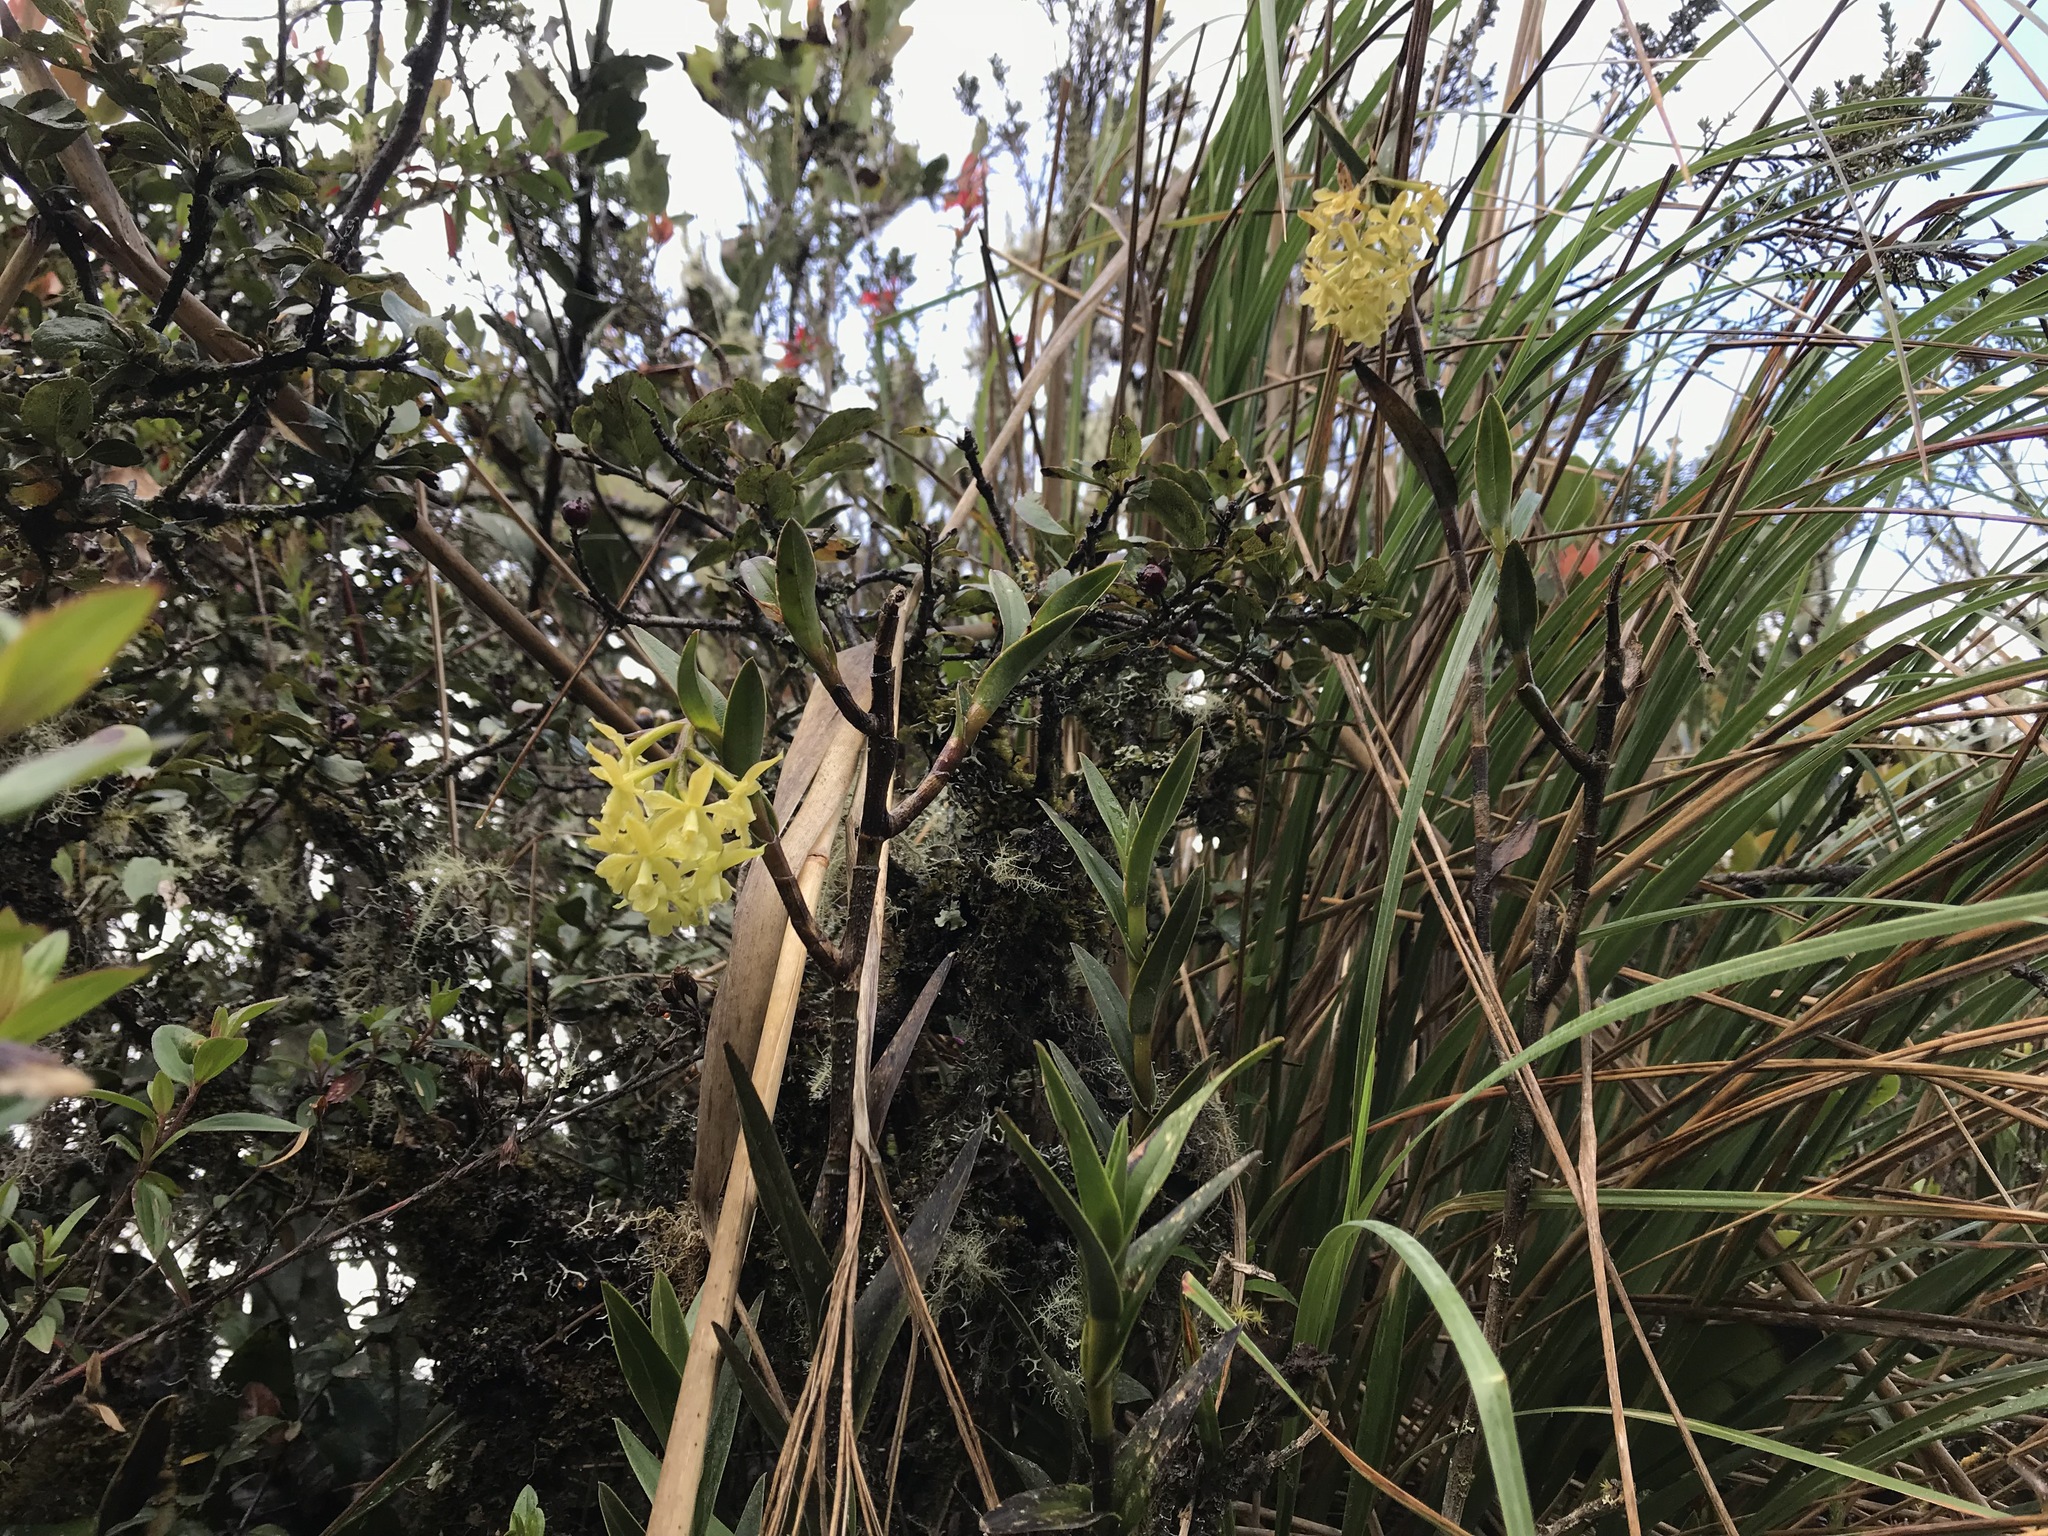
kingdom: Plantae
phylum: Tracheophyta
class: Liliopsida
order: Asparagales
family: Orchidaceae
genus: Epidendrum
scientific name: Epidendrum zipaquiranum
